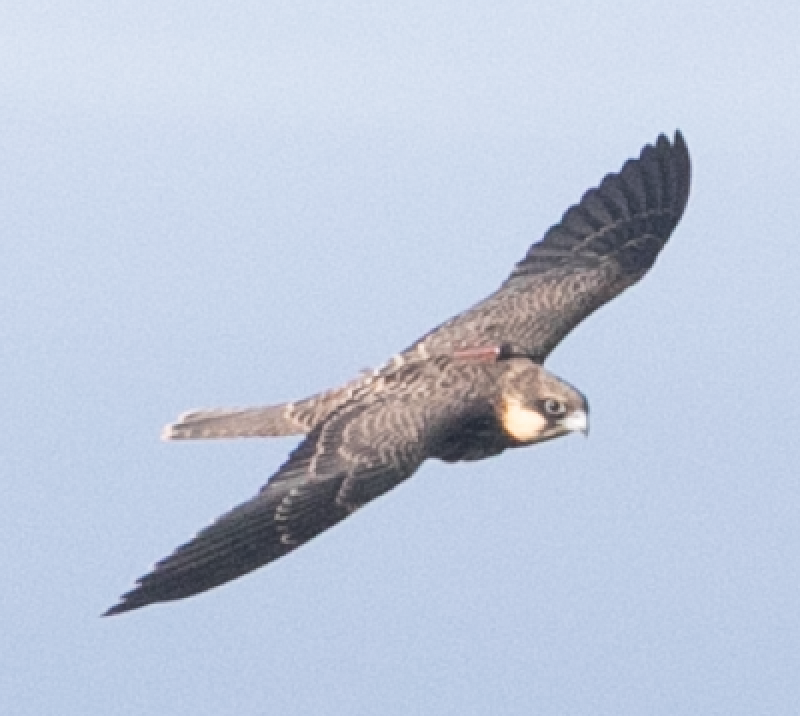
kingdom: Animalia
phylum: Chordata
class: Aves
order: Falconiformes
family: Falconidae
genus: Falco
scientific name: Falco eleonorae
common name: Eleonora's falcon
